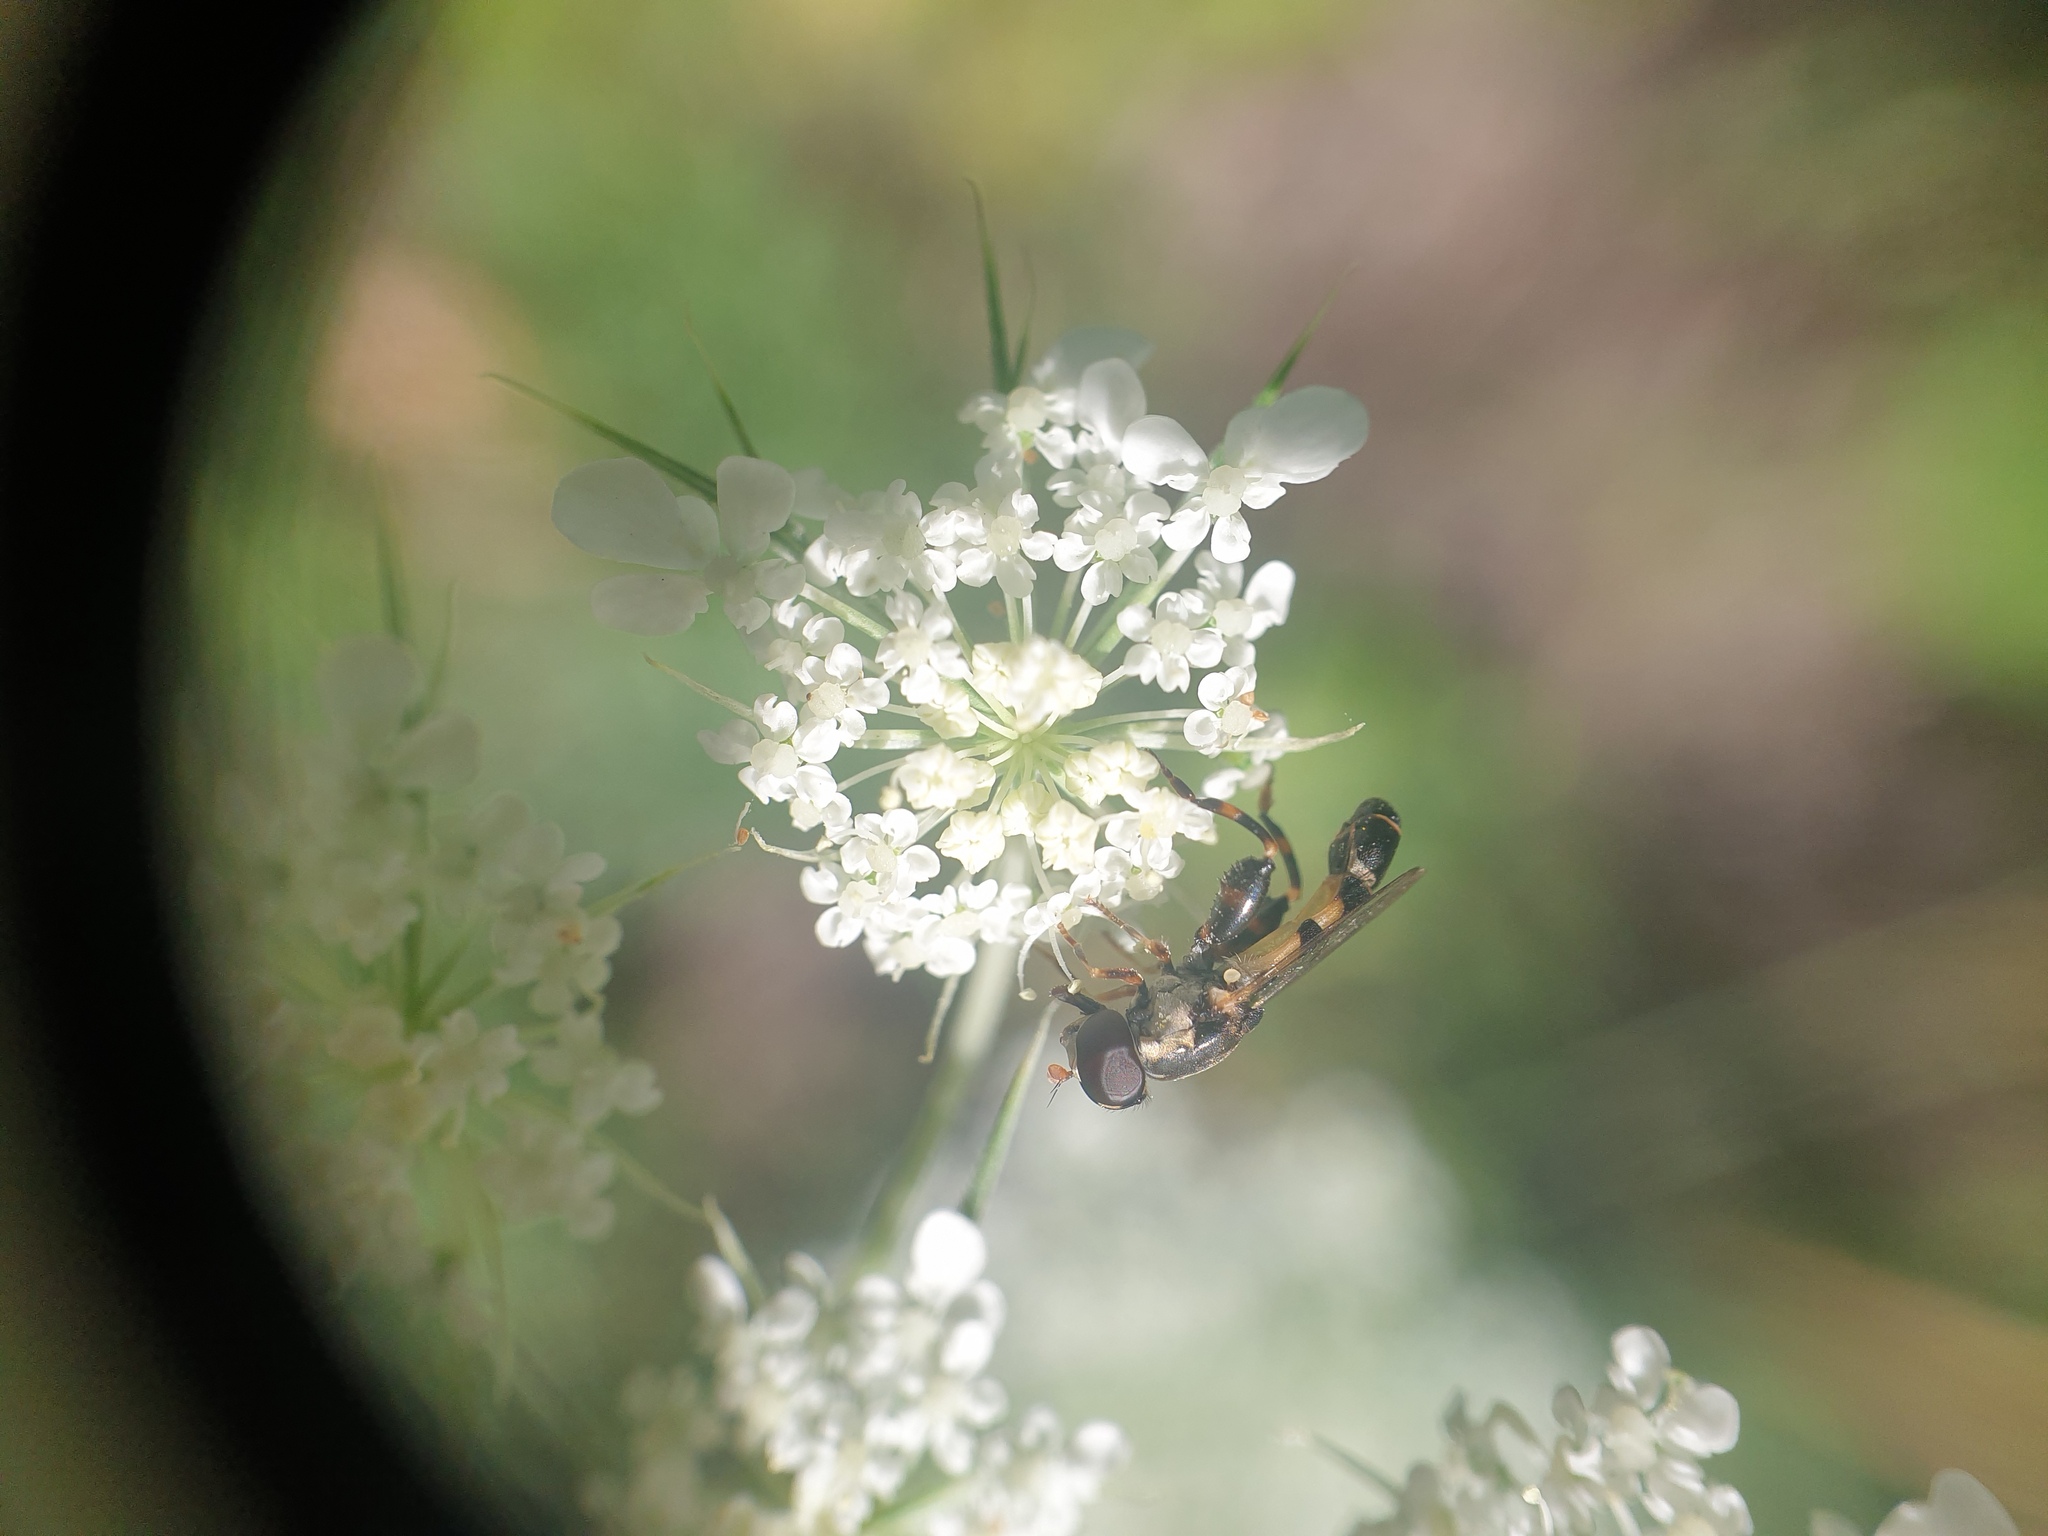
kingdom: Animalia
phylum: Arthropoda
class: Insecta
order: Diptera
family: Syrphidae
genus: Syritta
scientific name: Syritta pipiens
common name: Hover fly
